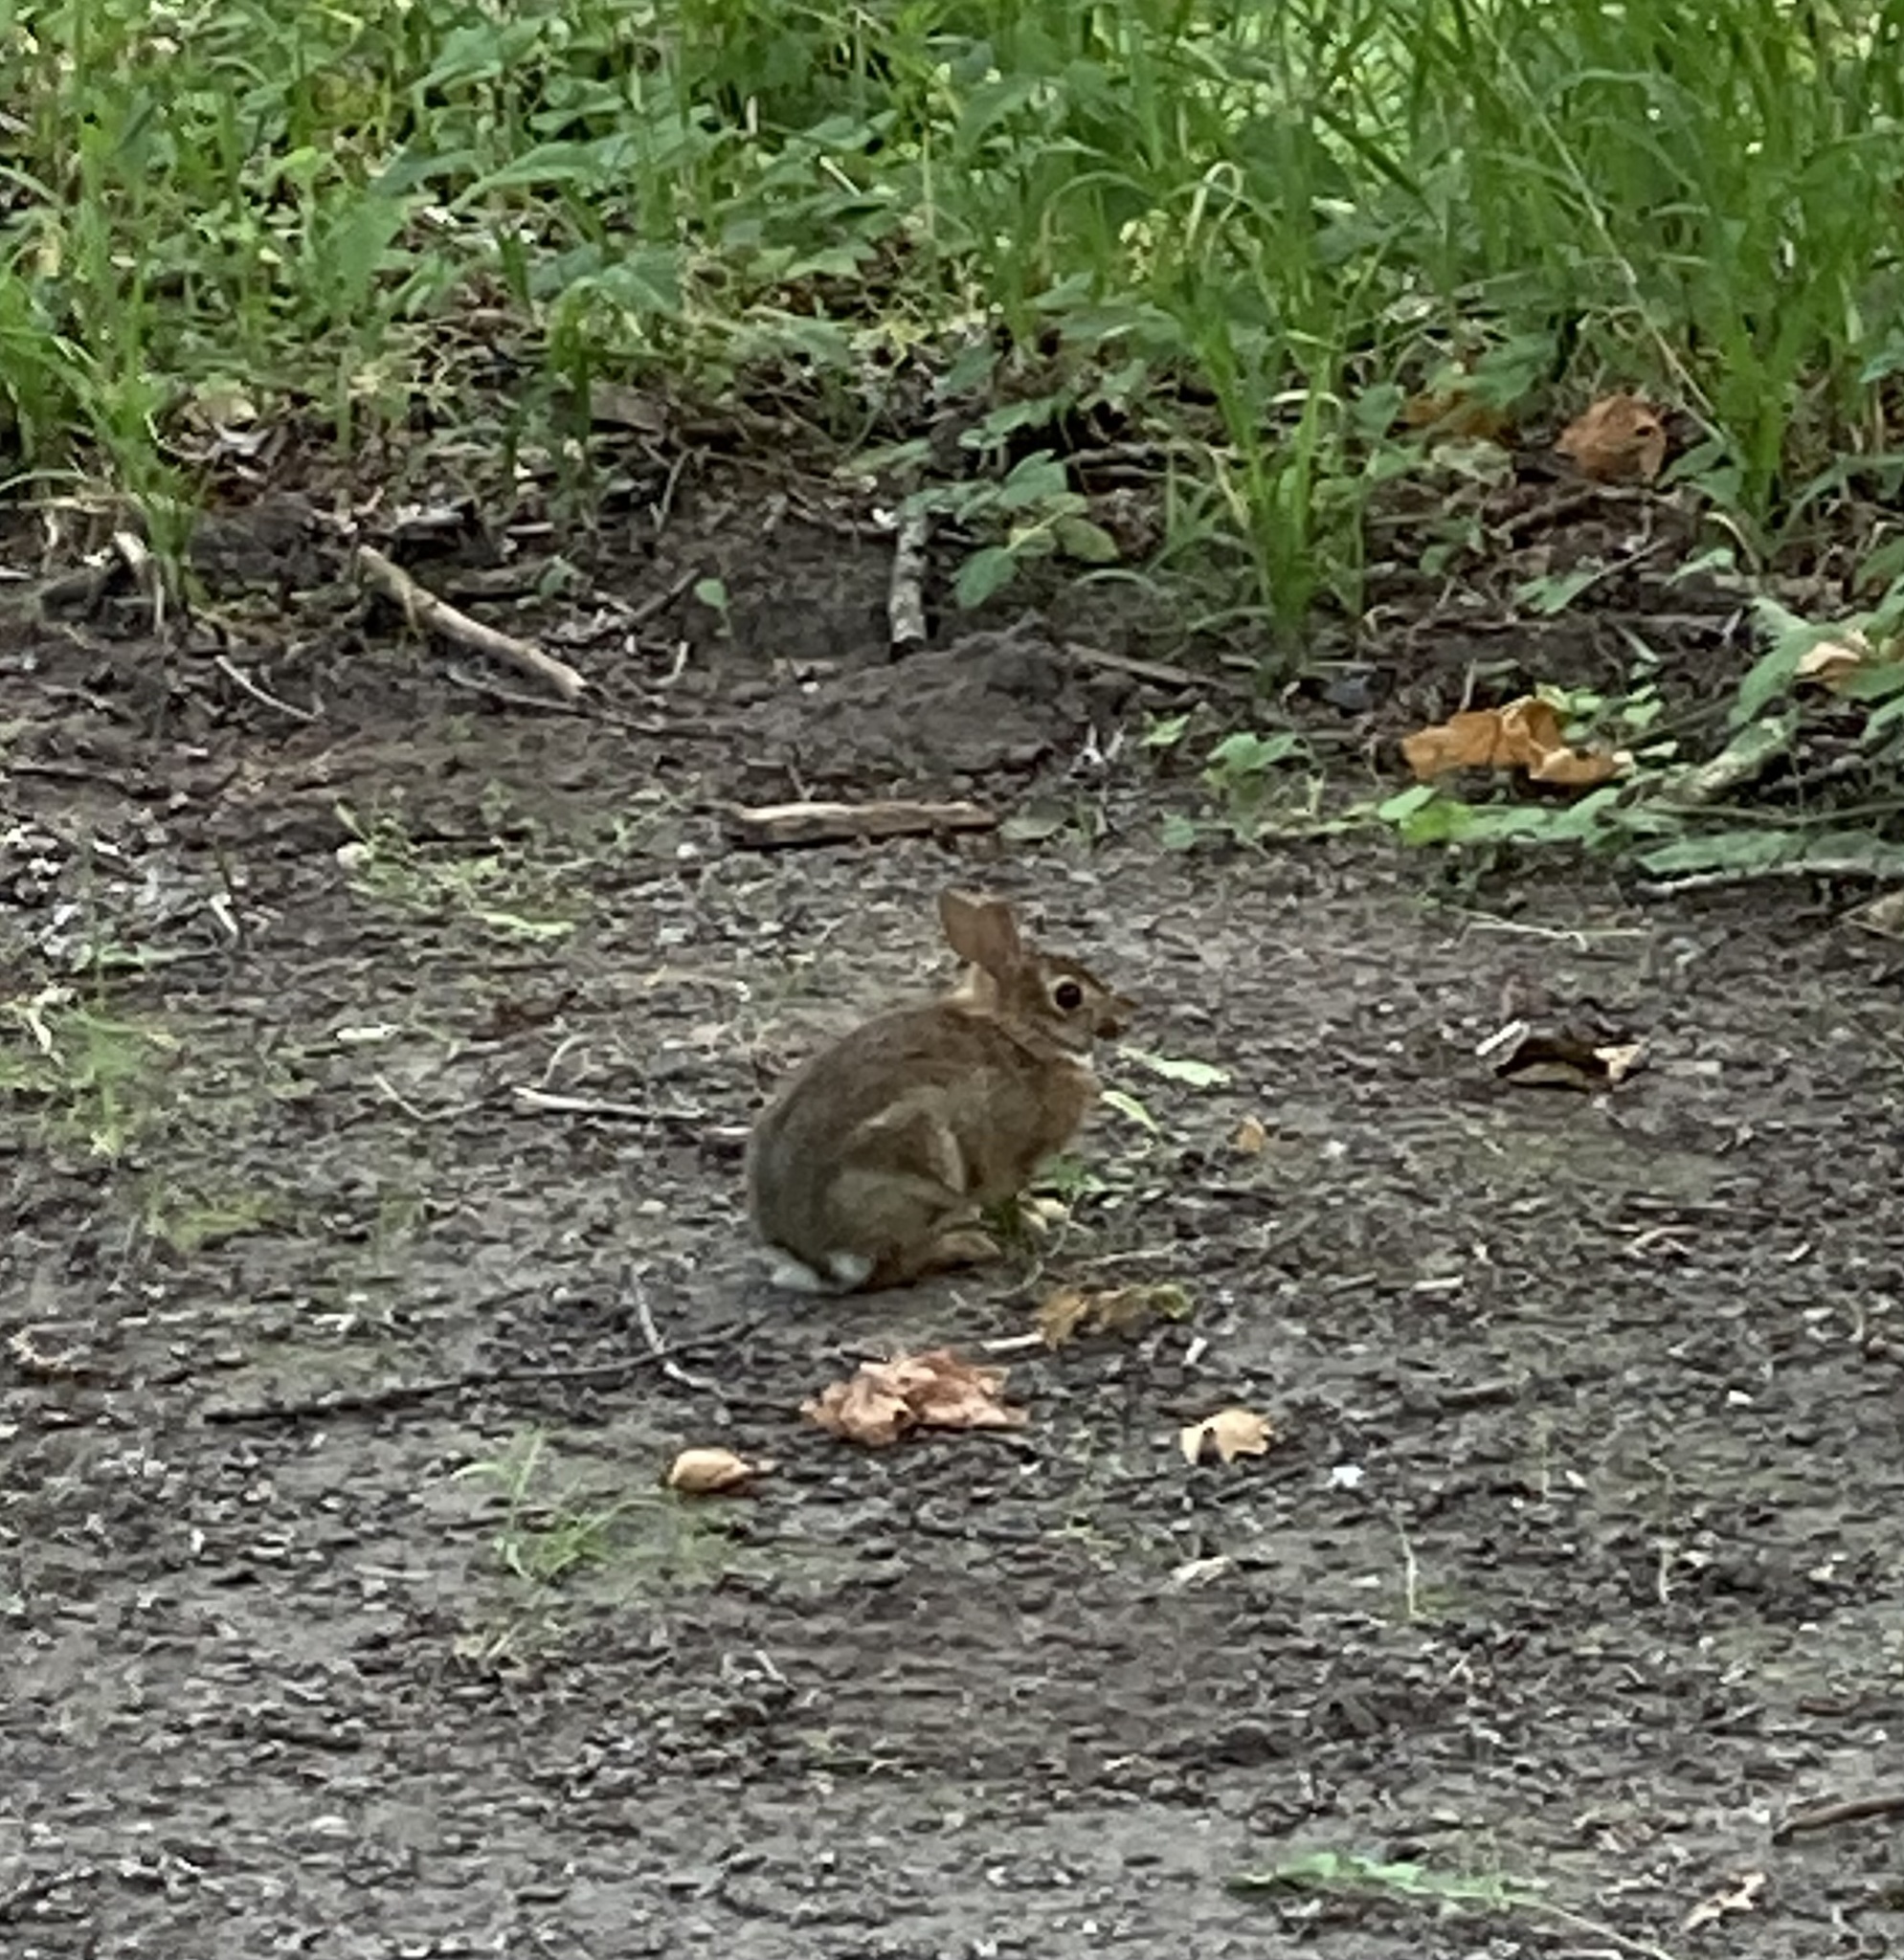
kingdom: Animalia
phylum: Chordata
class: Mammalia
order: Lagomorpha
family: Leporidae
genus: Sylvilagus
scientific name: Sylvilagus floridanus
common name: Eastern cottontail
